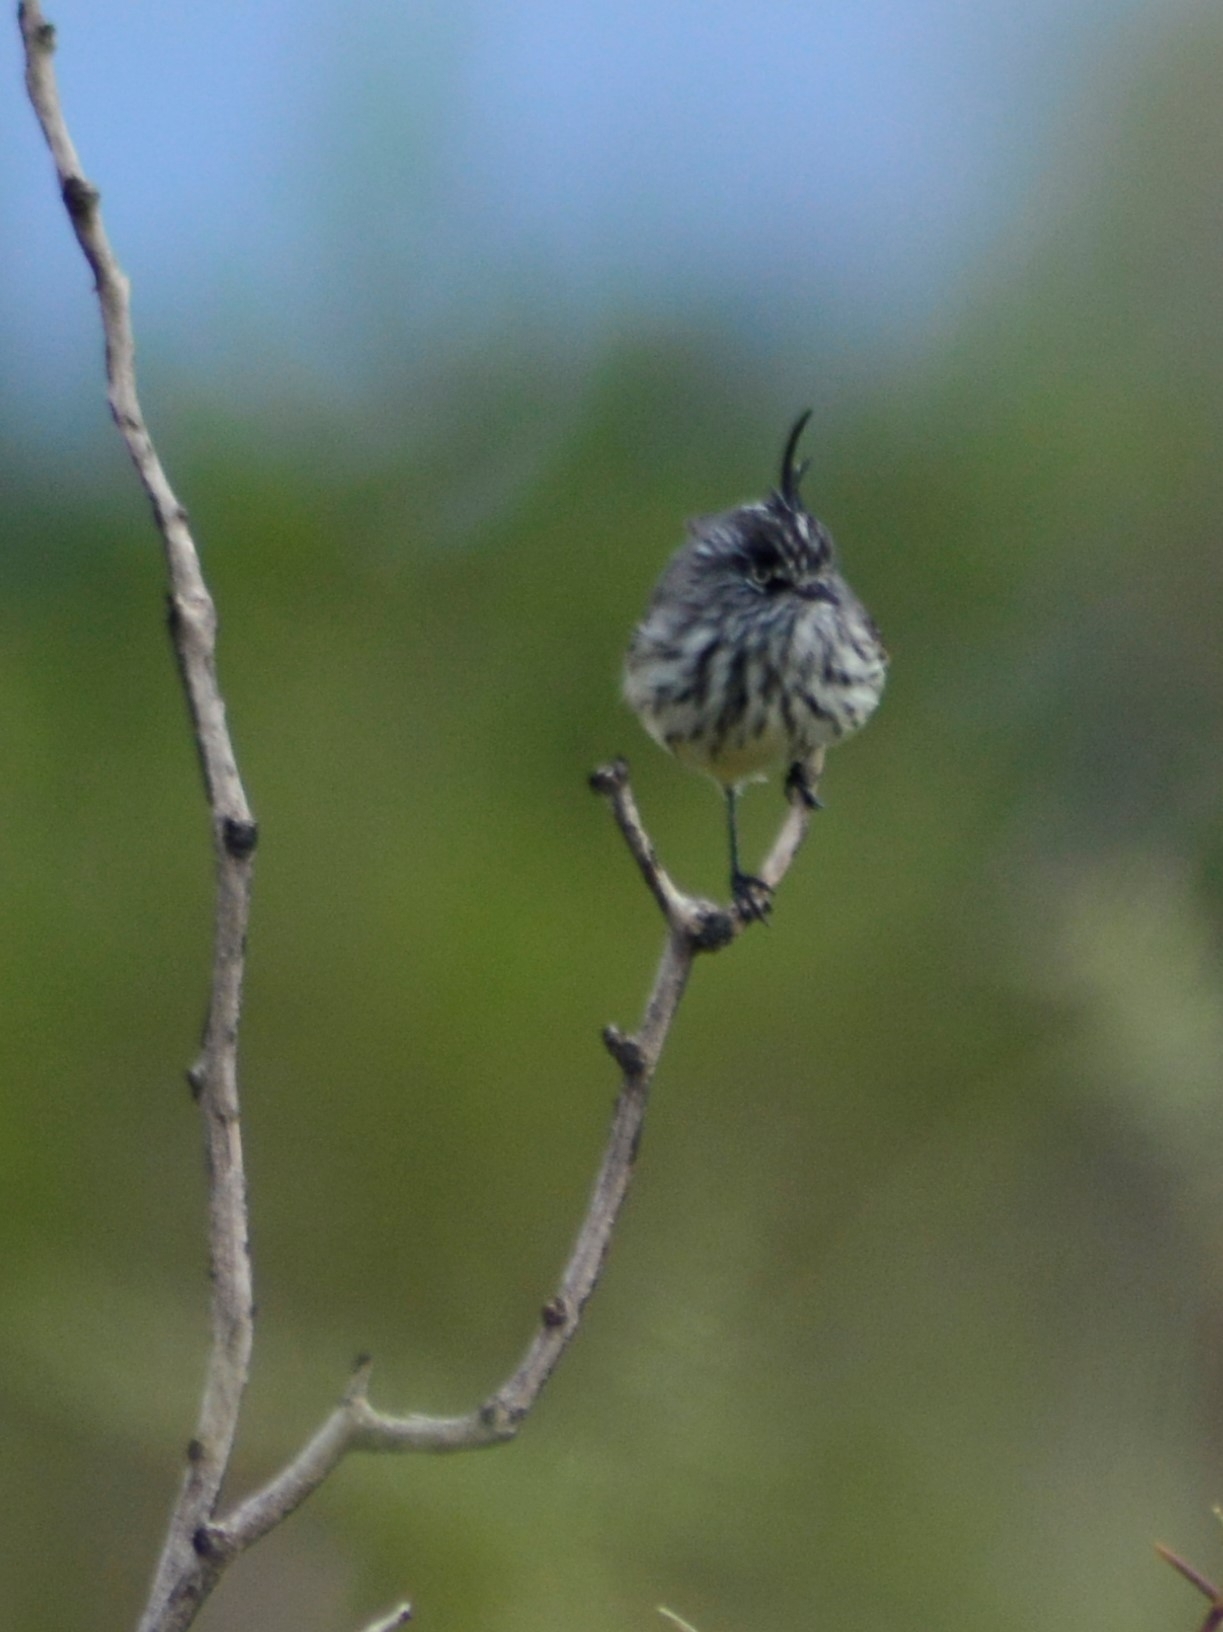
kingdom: Animalia
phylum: Chordata
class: Aves
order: Passeriformes
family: Tyrannidae
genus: Anairetes
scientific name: Anairetes parulus
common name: Tufted tit-tyrant
